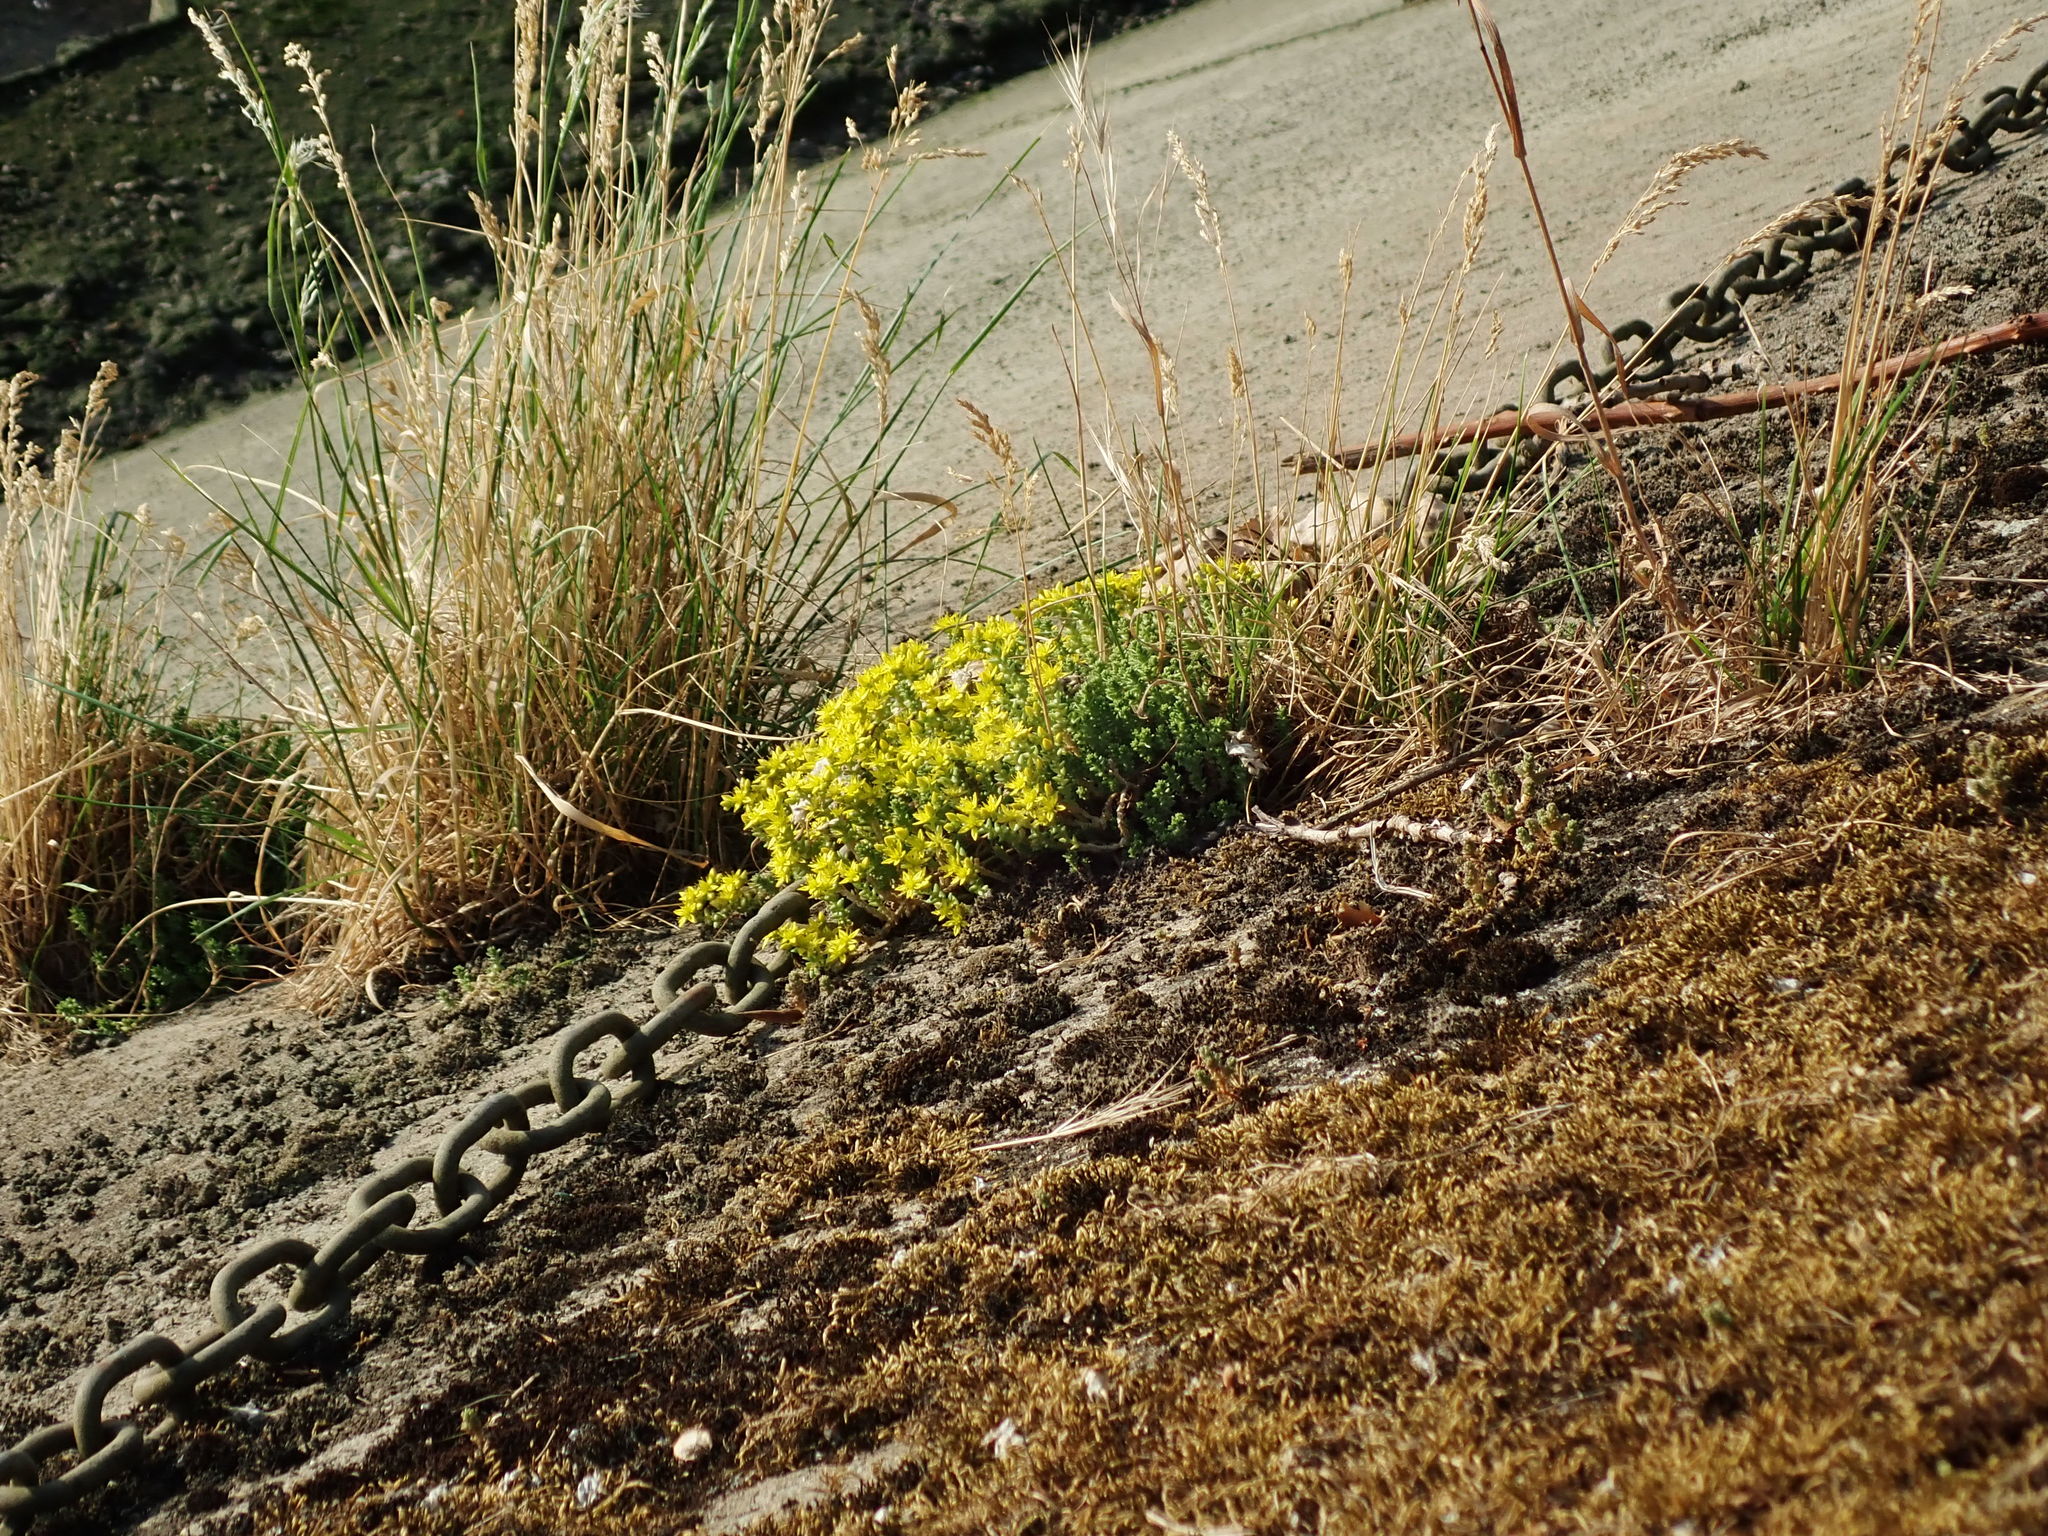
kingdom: Plantae
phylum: Tracheophyta
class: Magnoliopsida
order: Saxifragales
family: Crassulaceae
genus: Sedum
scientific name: Sedum acre
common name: Biting stonecrop
